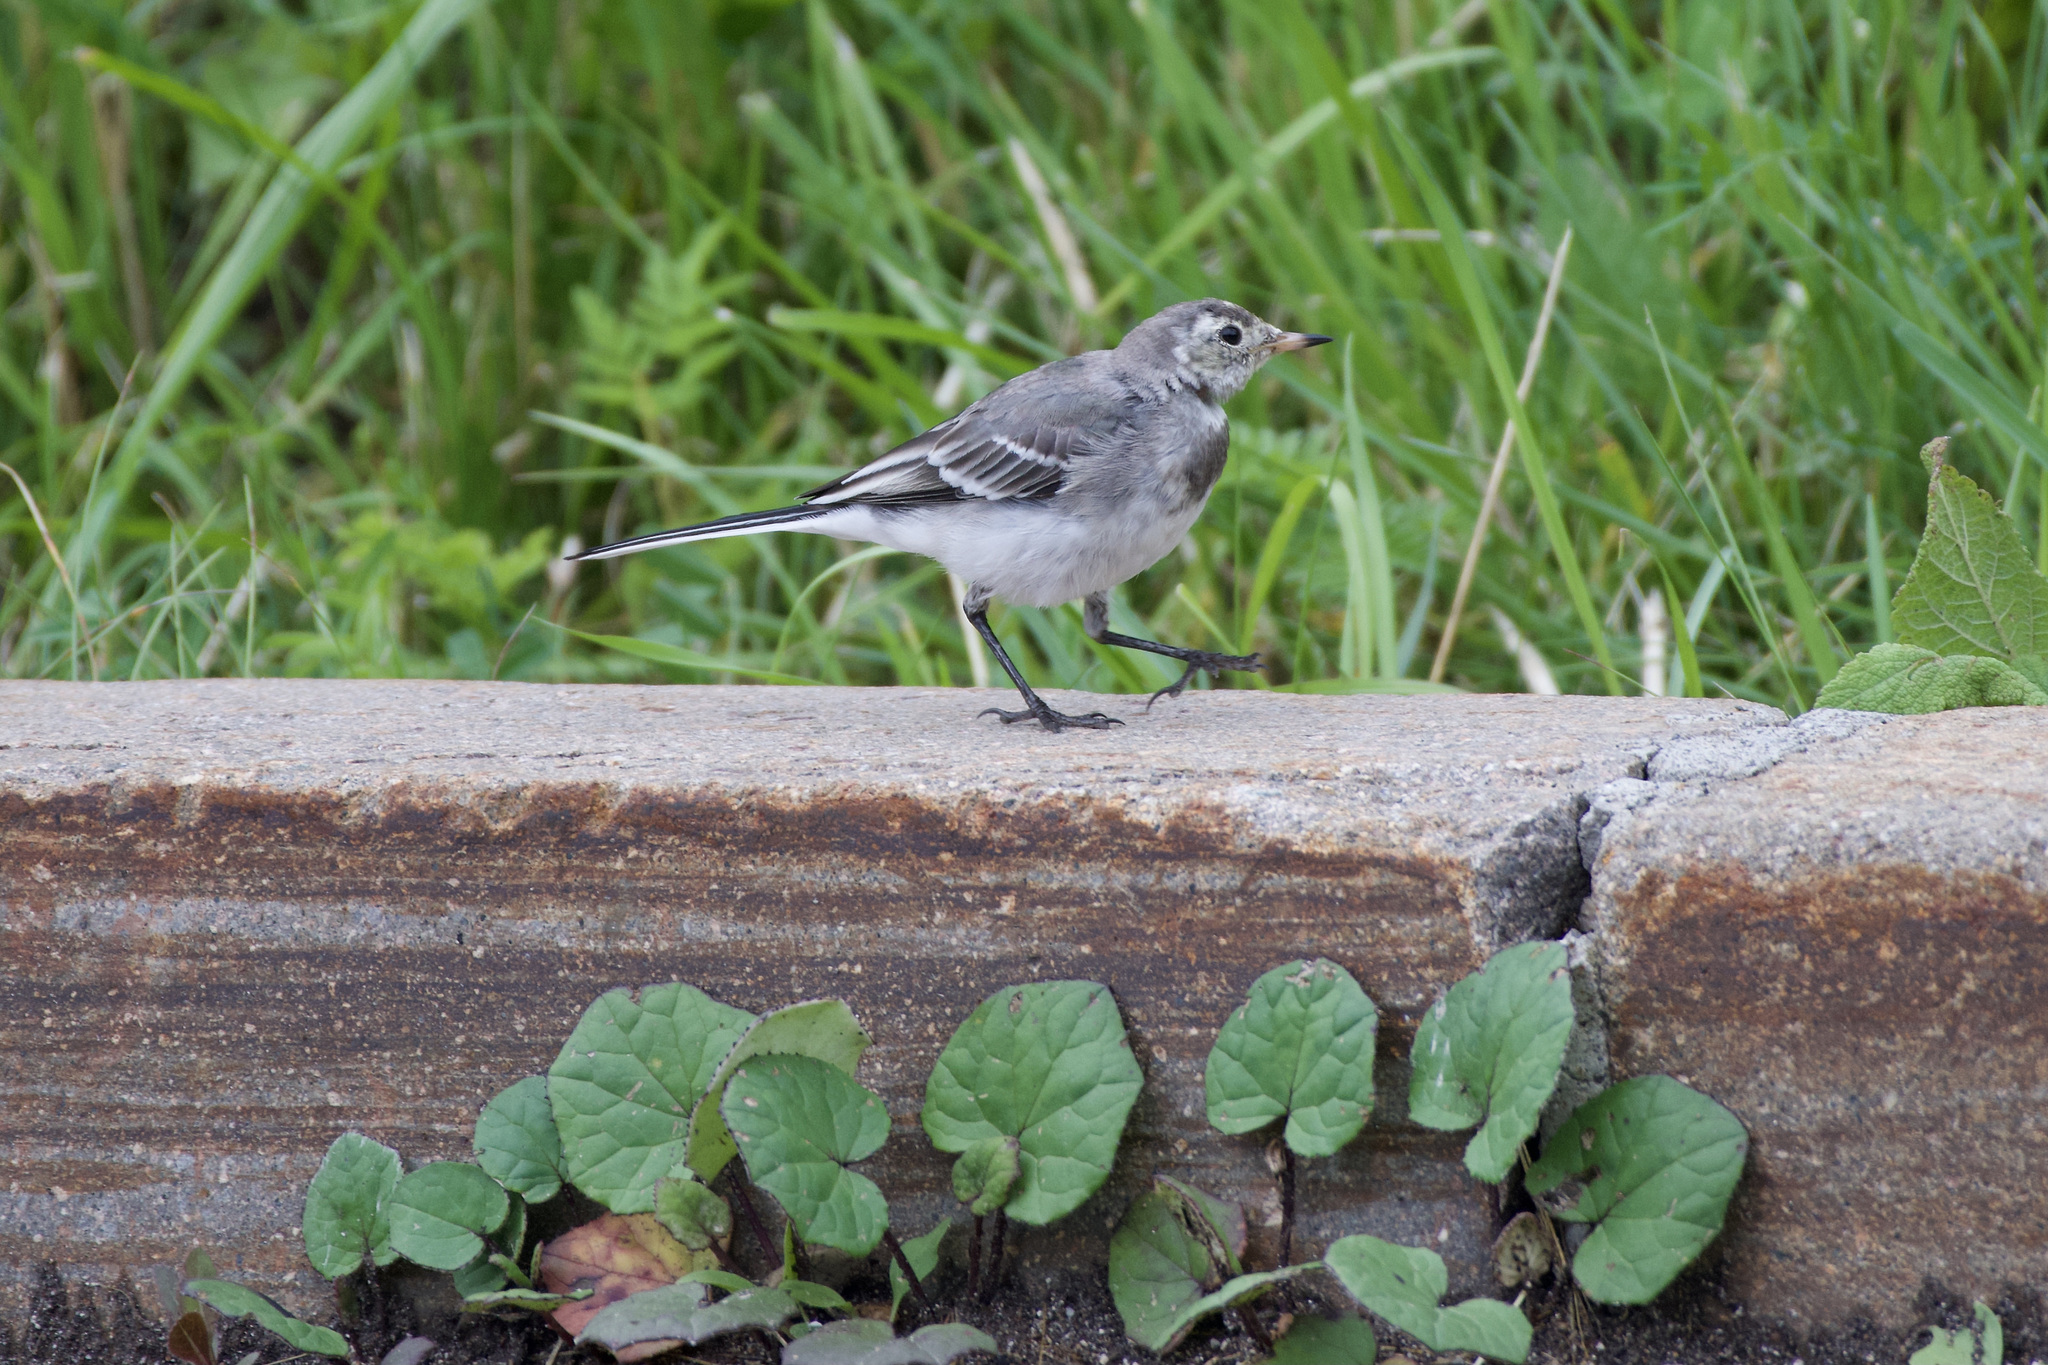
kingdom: Animalia
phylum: Chordata
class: Aves
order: Passeriformes
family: Motacillidae
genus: Motacilla
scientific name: Motacilla alba
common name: White wagtail
